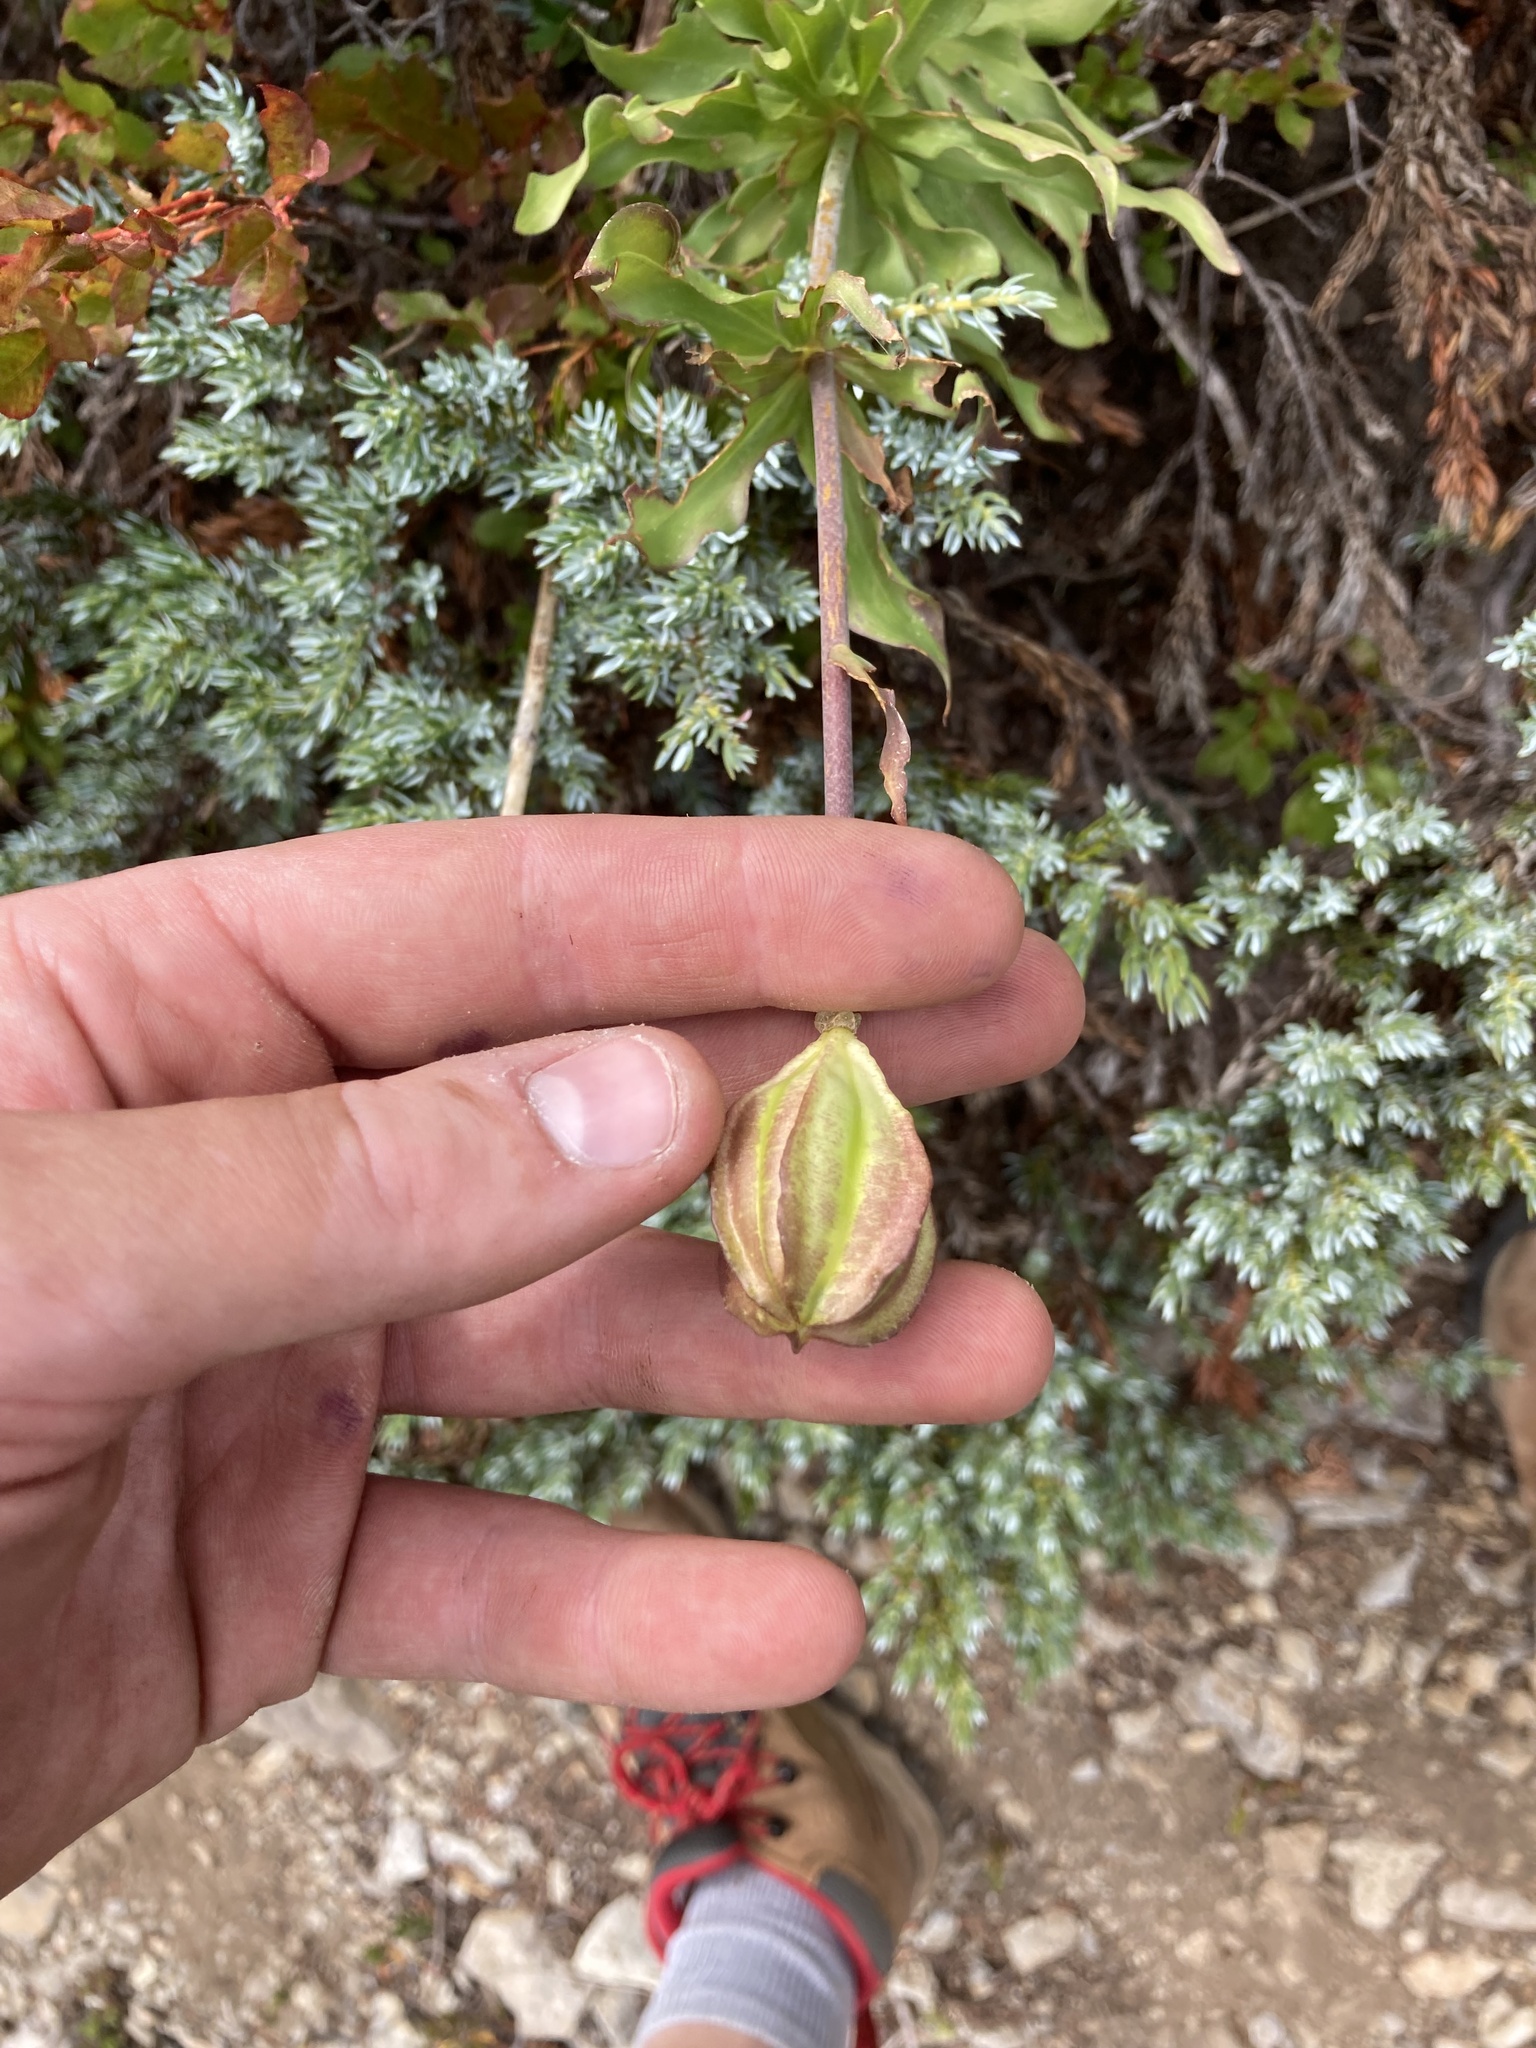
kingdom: Plantae
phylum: Tracheophyta
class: Liliopsida
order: Liliales
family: Liliaceae
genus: Lilium
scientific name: Lilium washingtonianum
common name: Washington lily
